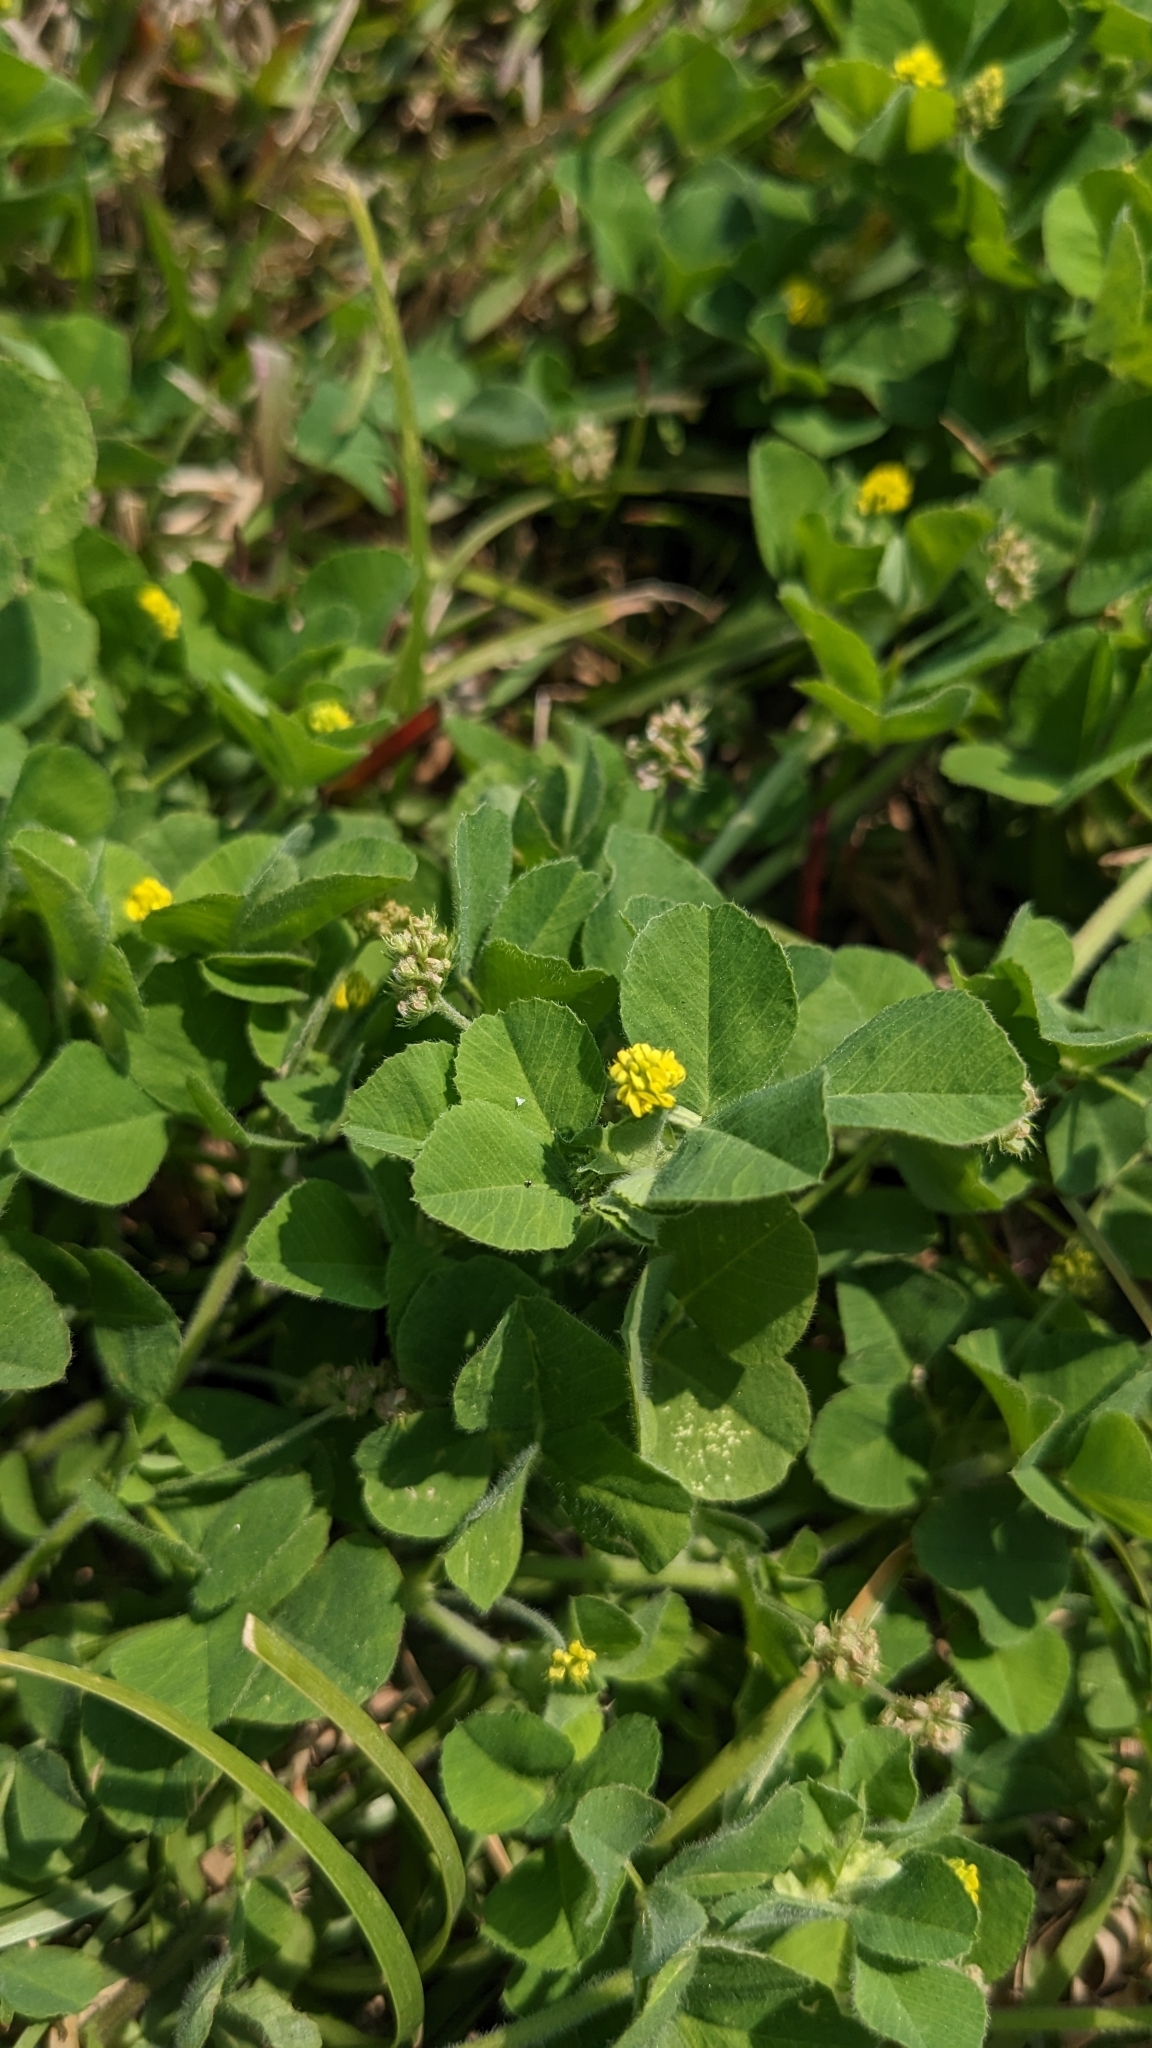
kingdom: Plantae
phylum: Tracheophyta
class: Magnoliopsida
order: Fabales
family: Fabaceae
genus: Medicago
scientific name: Medicago lupulina
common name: Black medick
